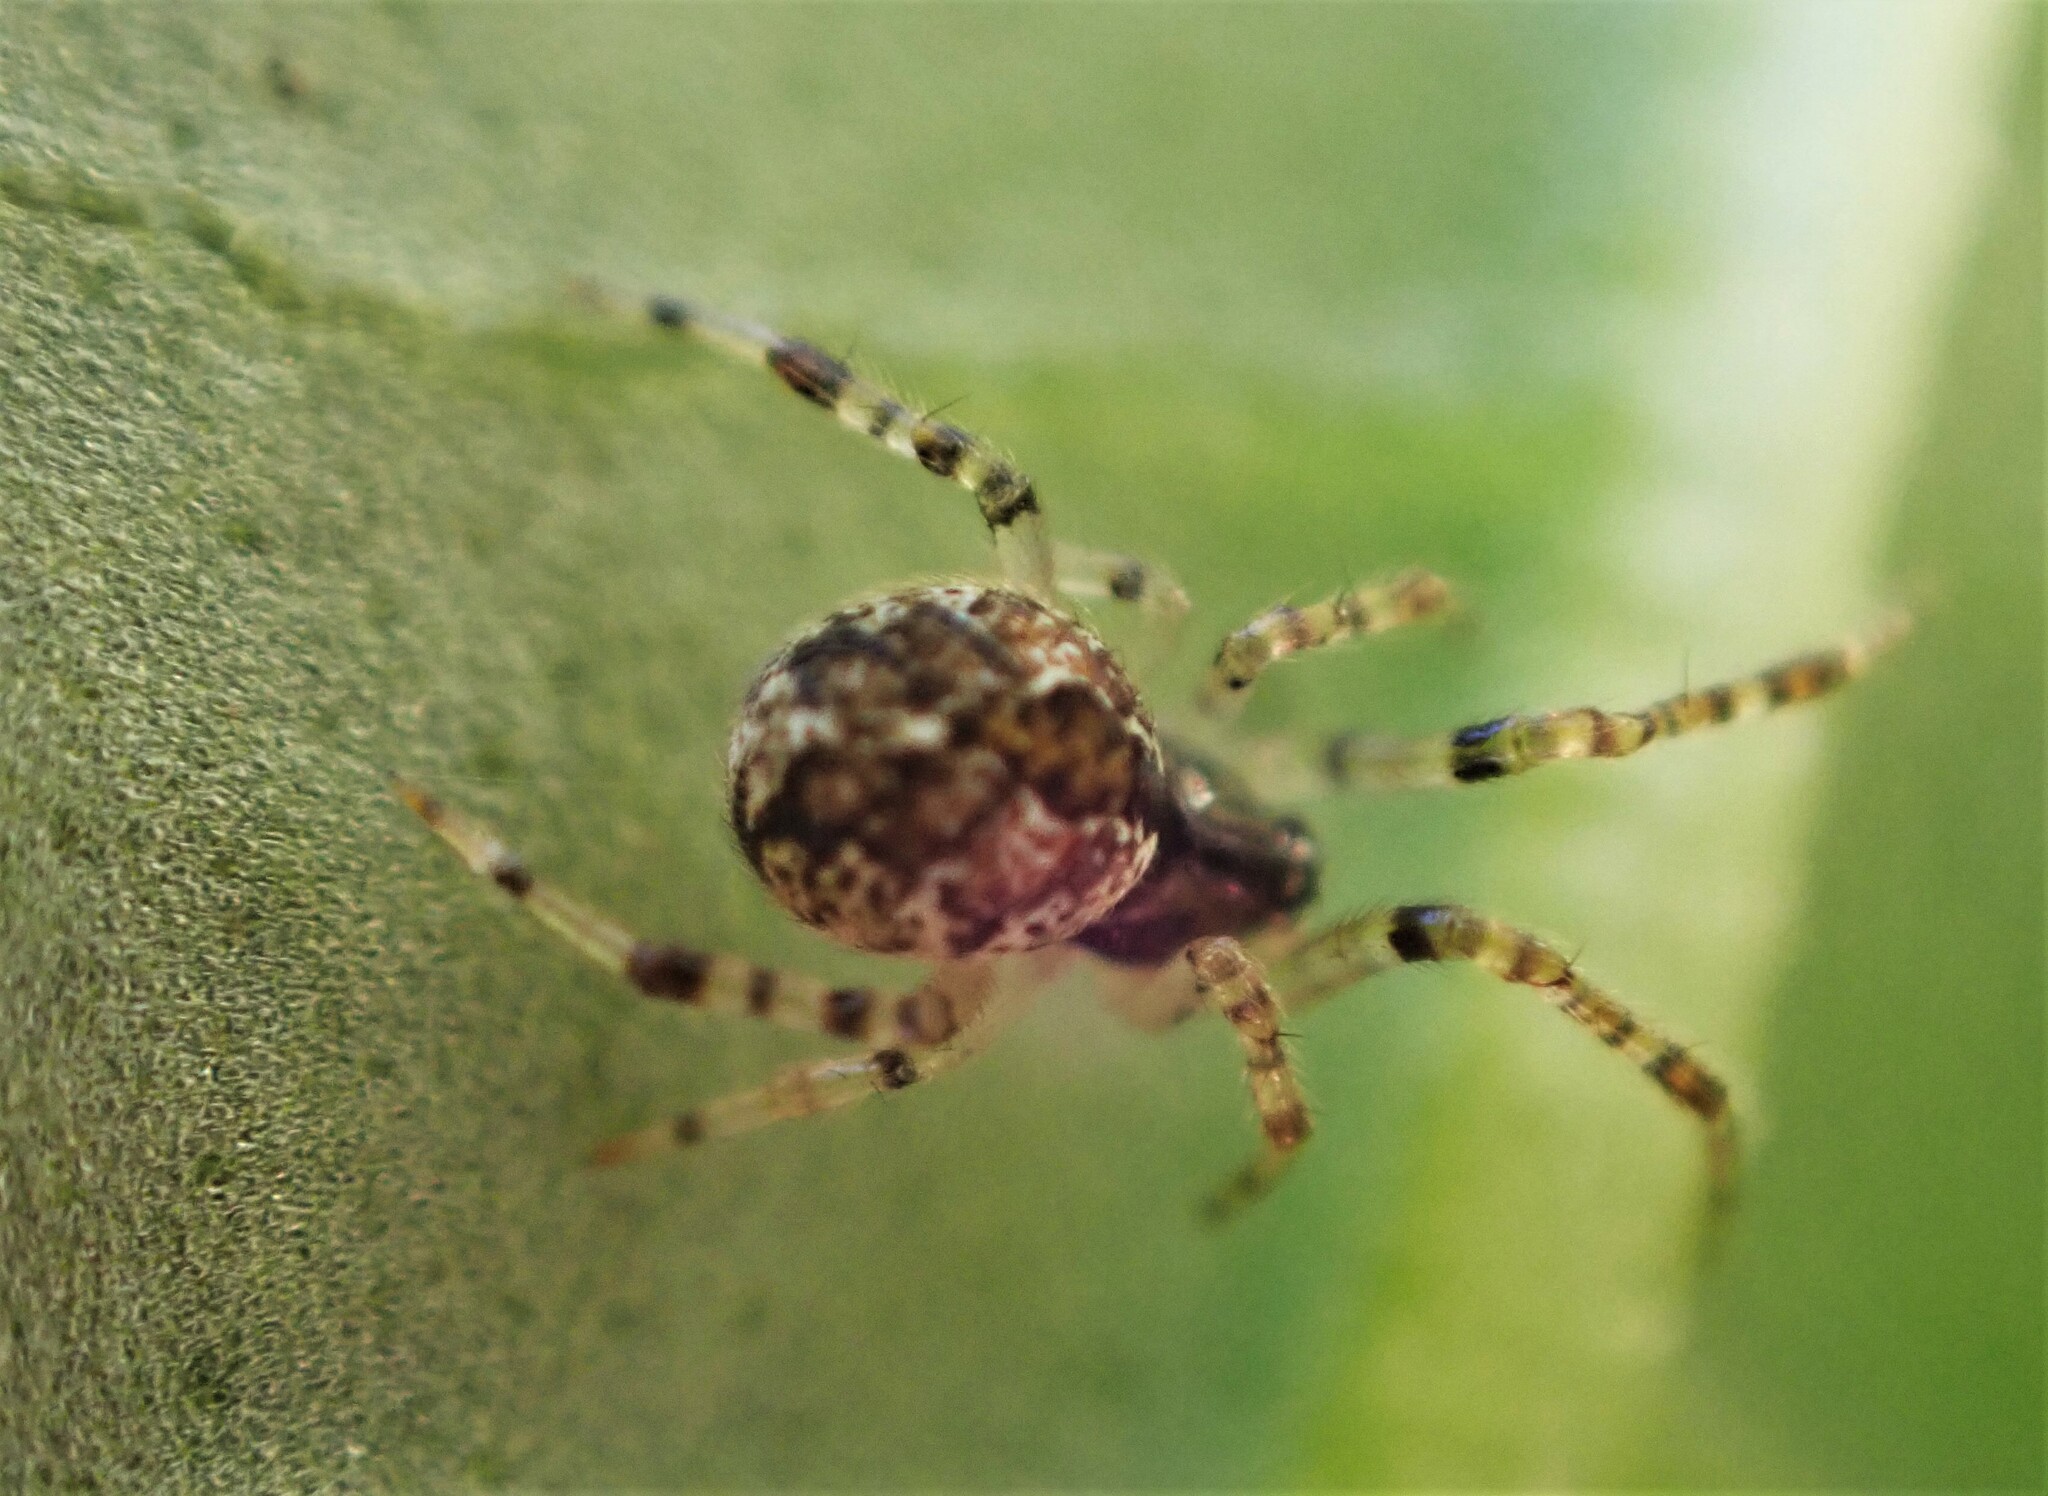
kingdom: Animalia
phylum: Arthropoda
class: Arachnida
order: Araneae
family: Theridiidae
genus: Cryptachaea
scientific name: Cryptachaea veruculata
